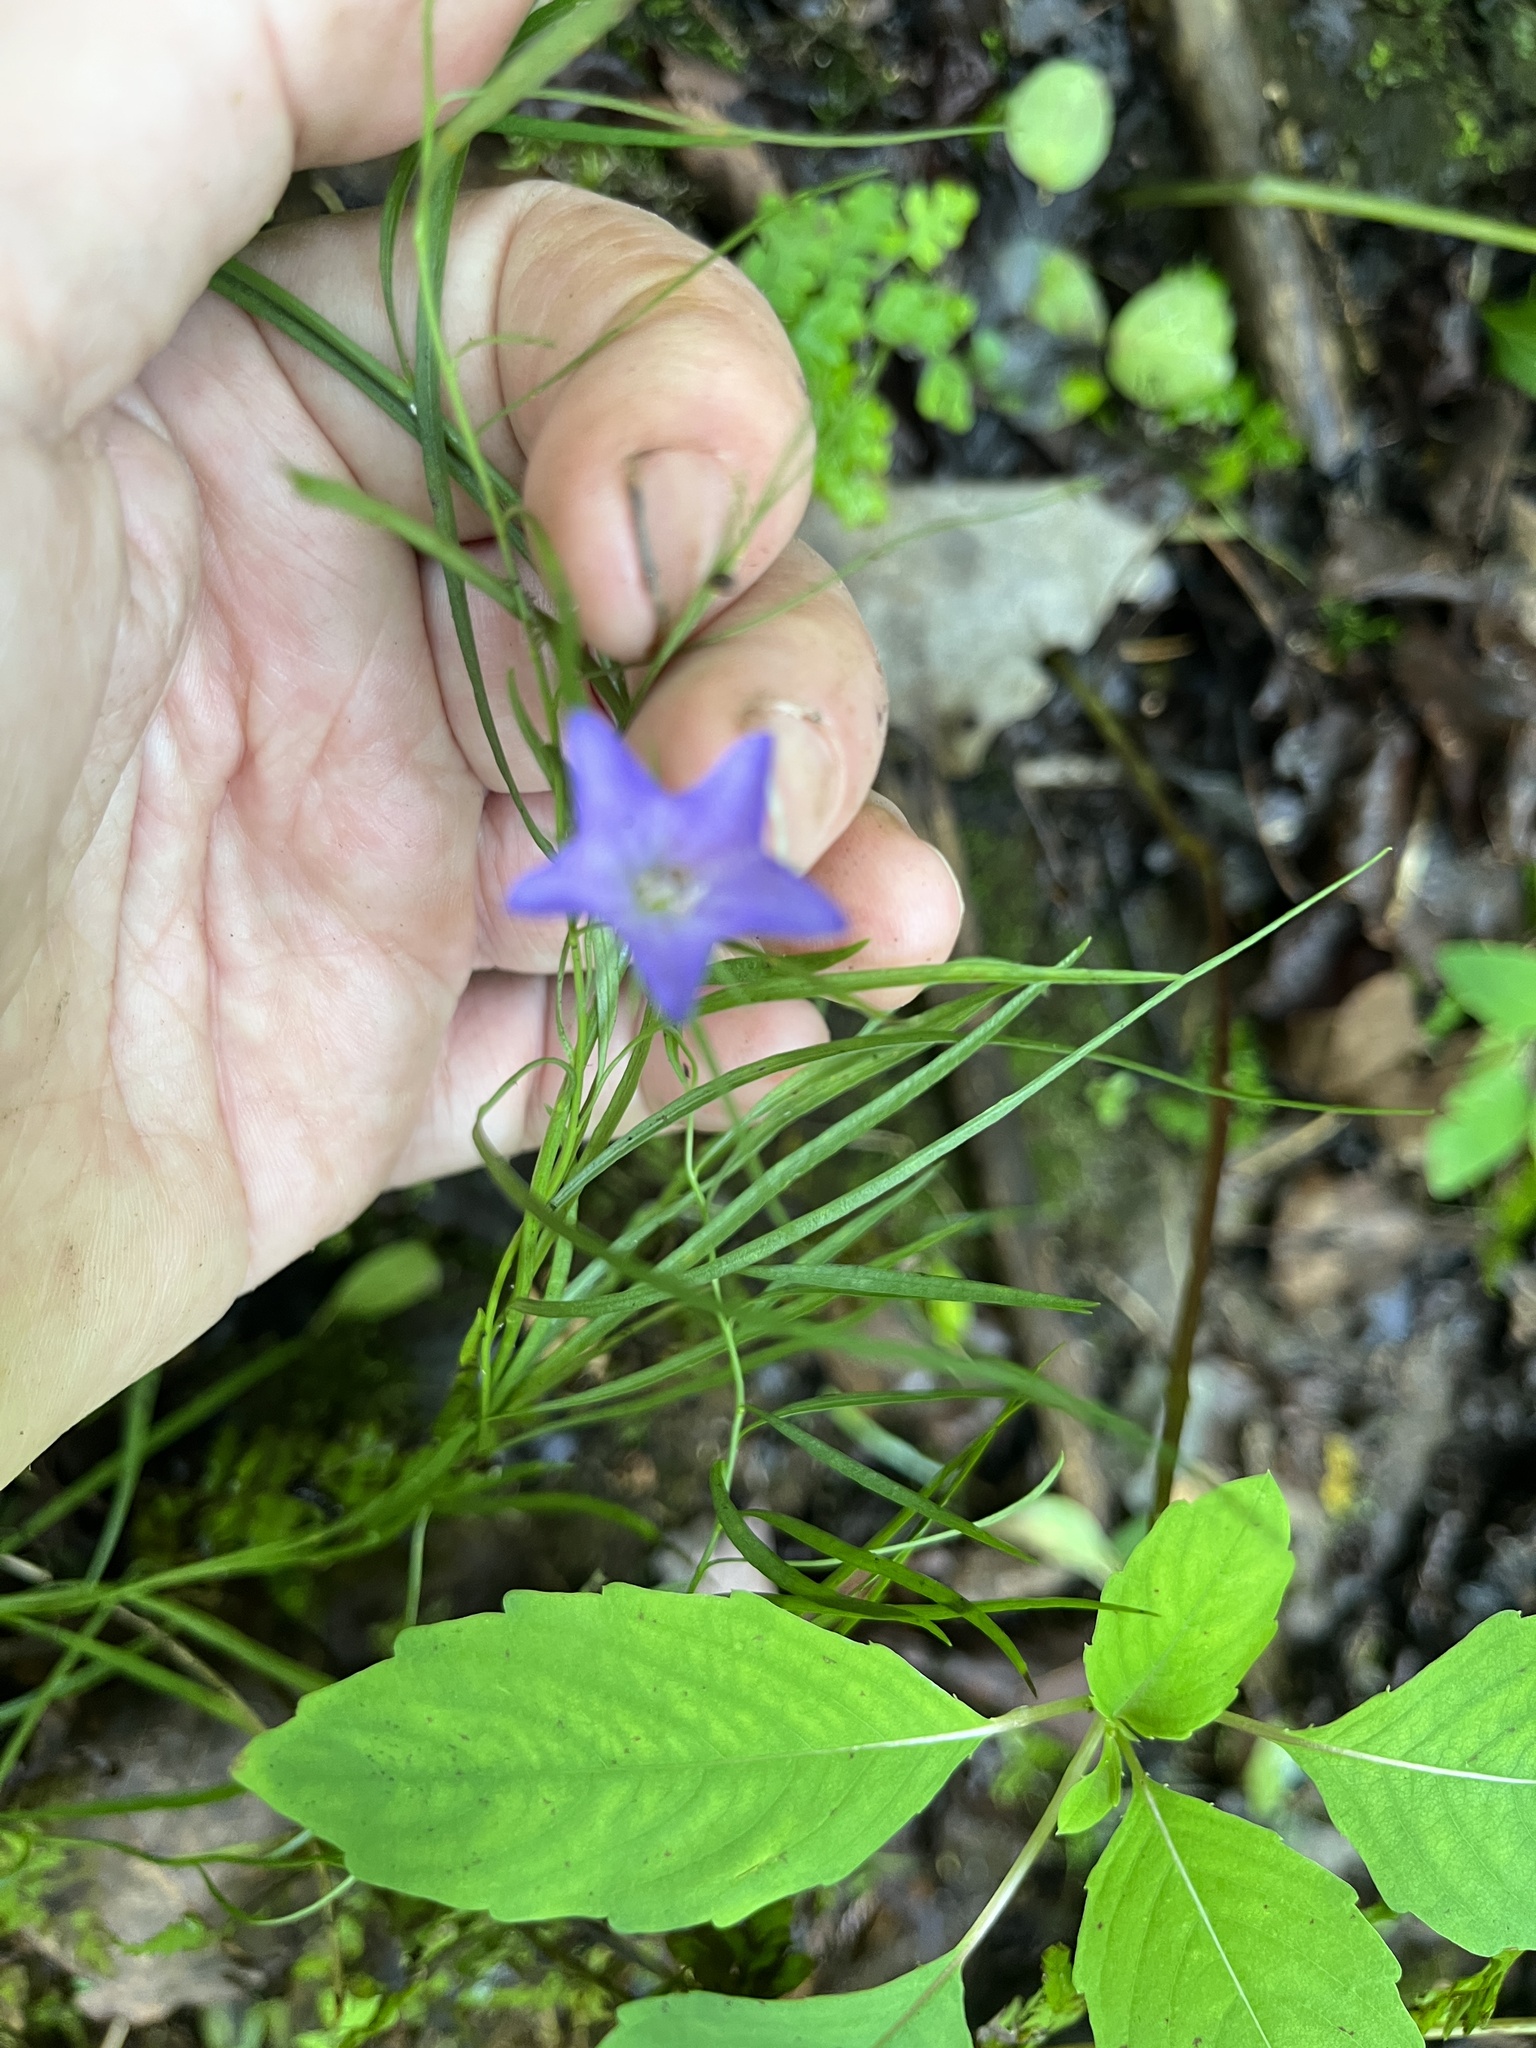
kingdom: Plantae
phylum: Tracheophyta
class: Magnoliopsida
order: Asterales
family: Campanulaceae
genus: Campanula
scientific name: Campanula intercedens
